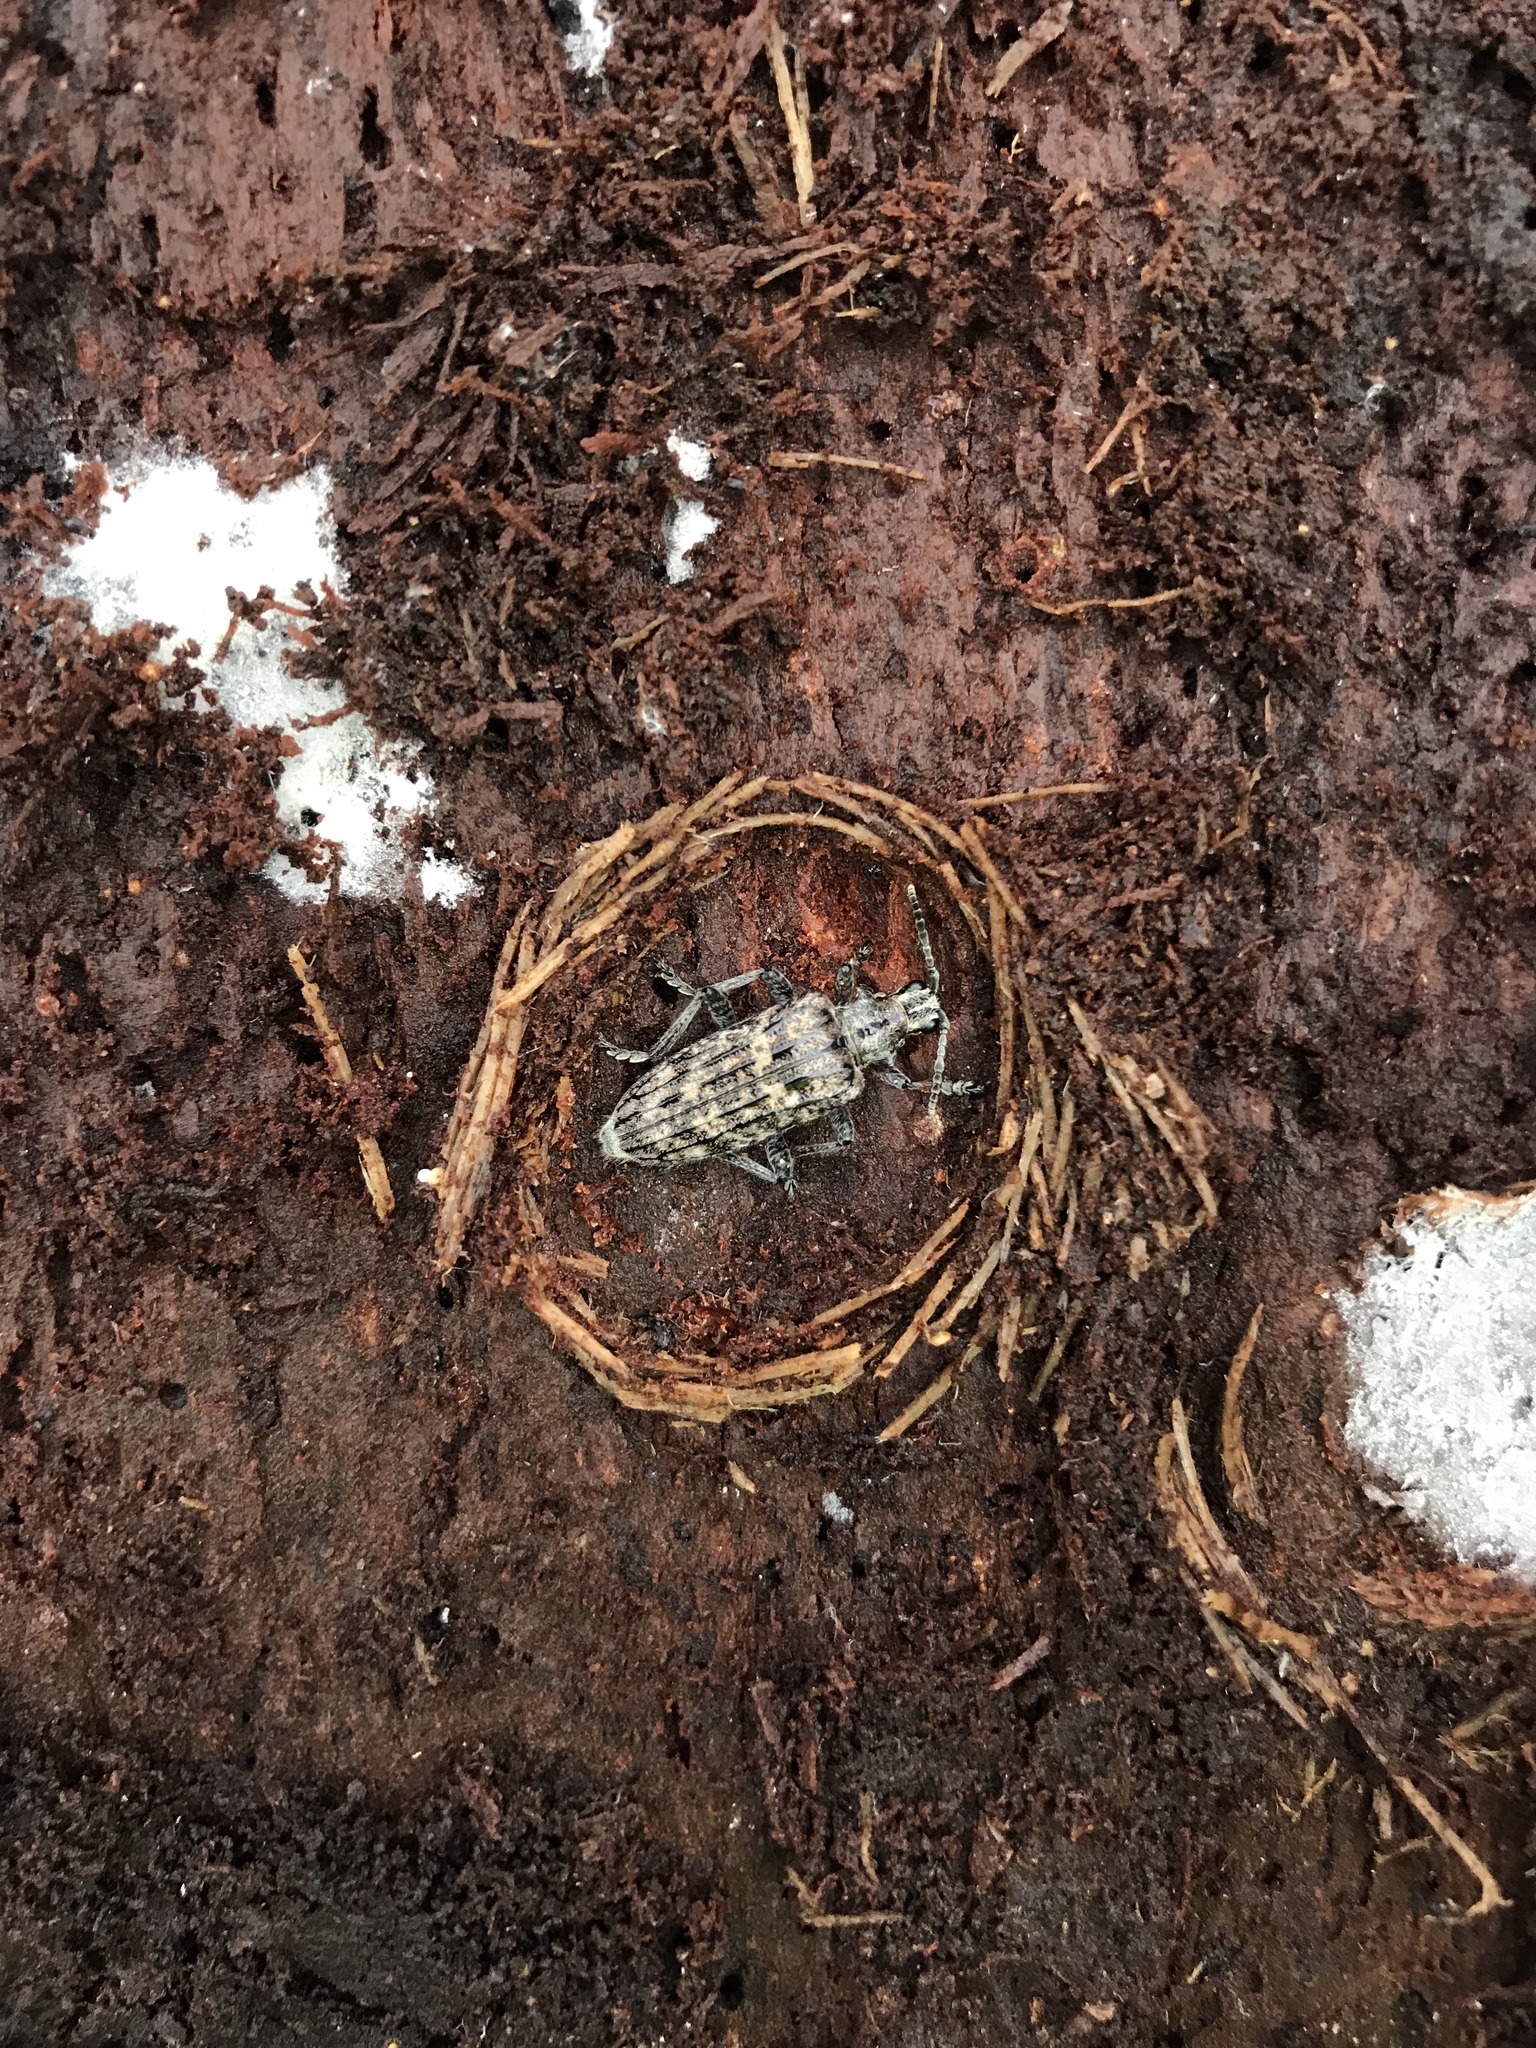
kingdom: Animalia
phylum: Arthropoda
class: Insecta
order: Coleoptera
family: Cerambycidae
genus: Rhagium
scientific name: Rhagium inquisitor
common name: Ribbed pine borer
